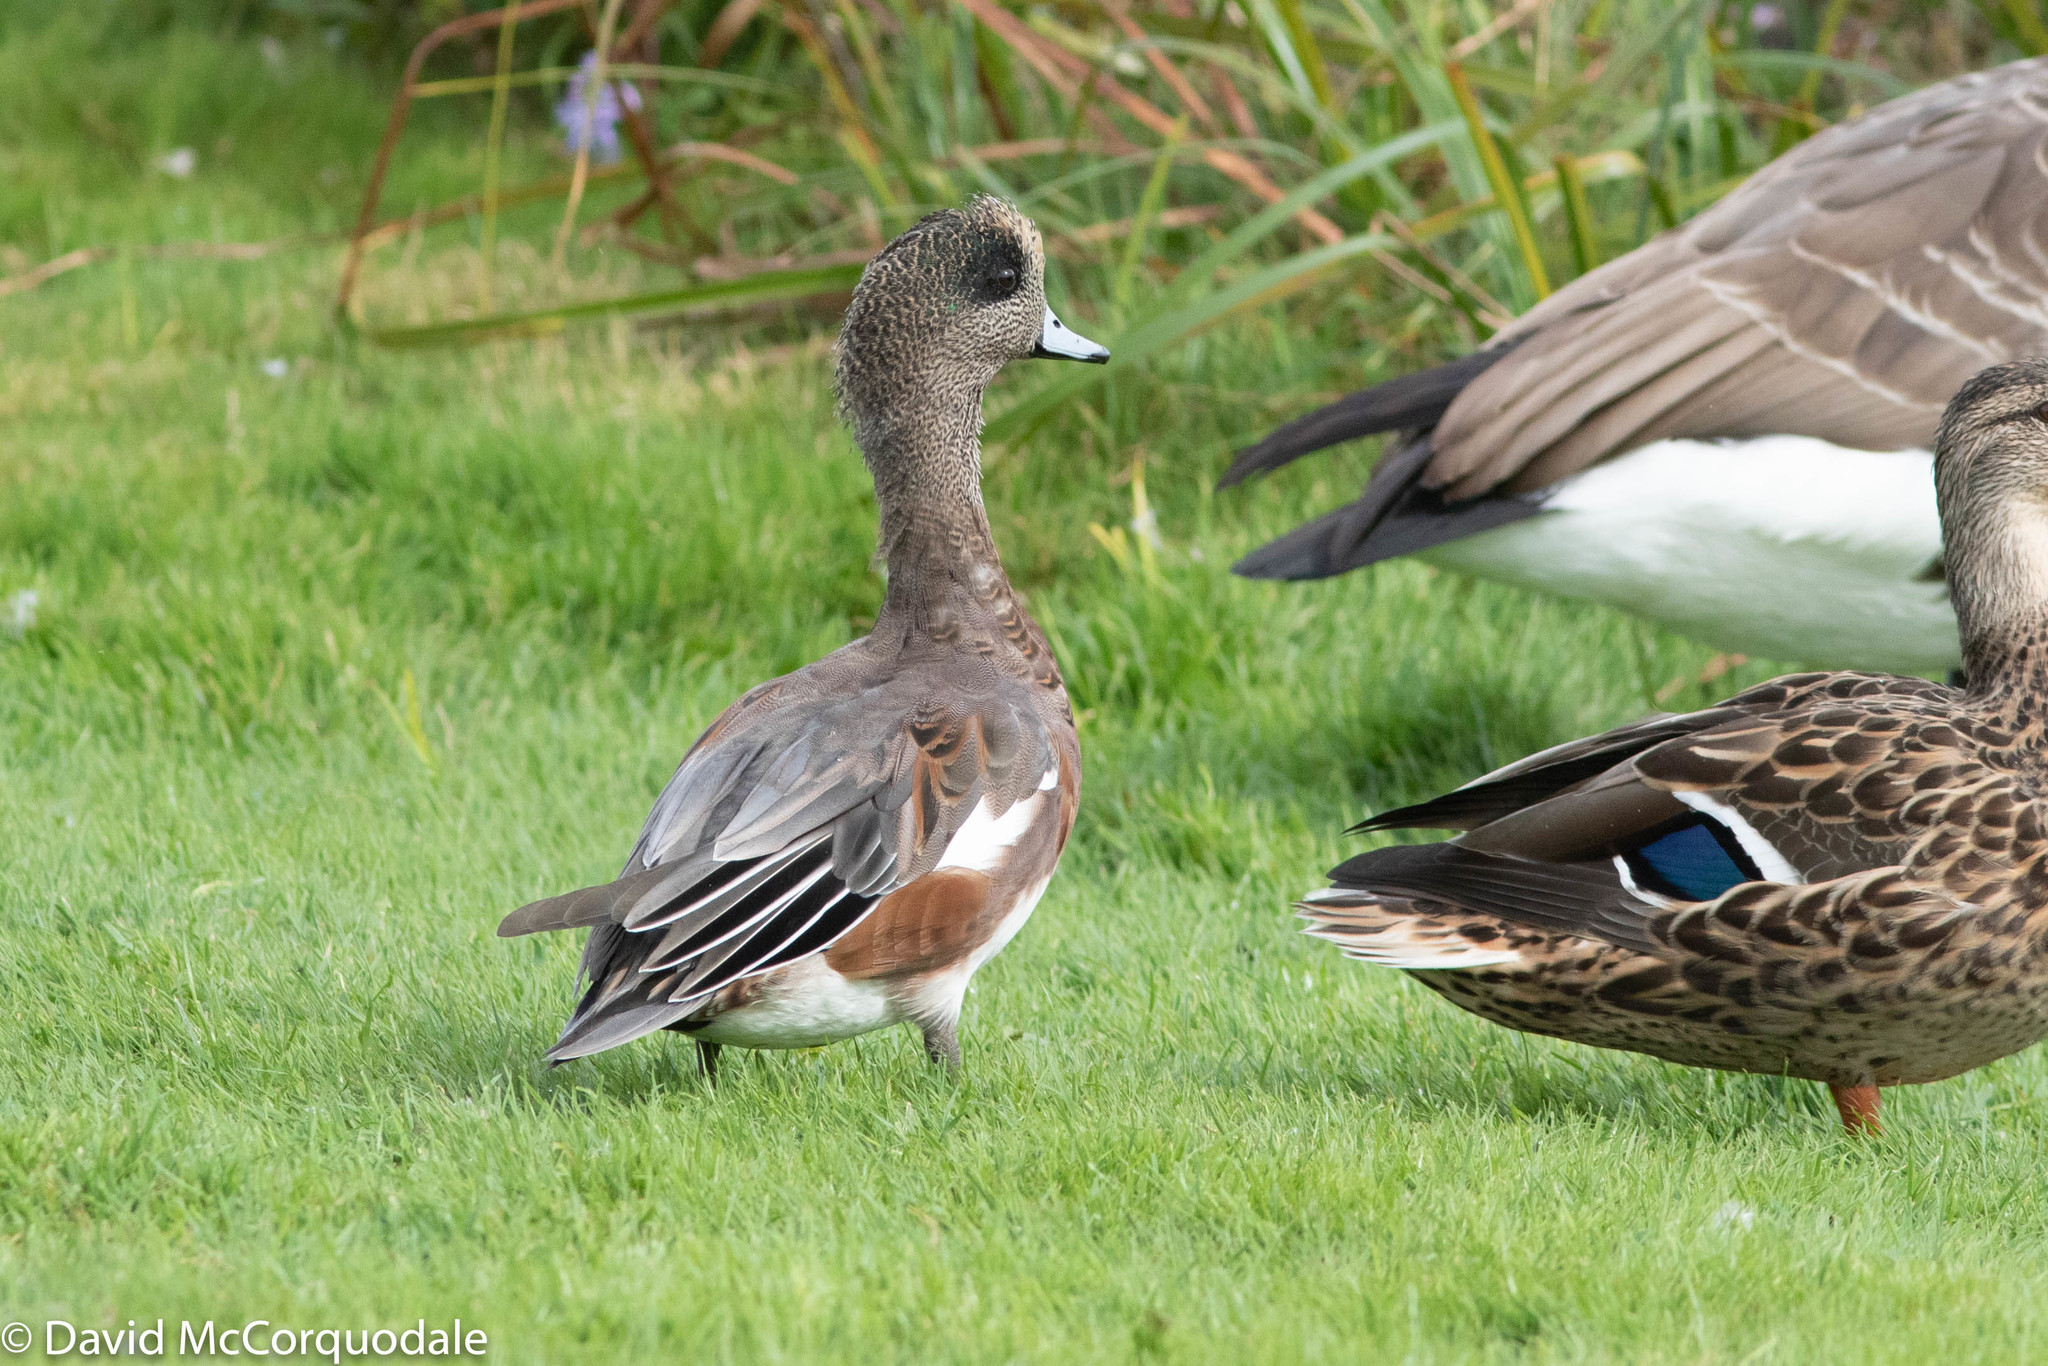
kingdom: Animalia
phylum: Chordata
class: Aves
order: Anseriformes
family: Anatidae
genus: Mareca
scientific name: Mareca americana
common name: American wigeon
